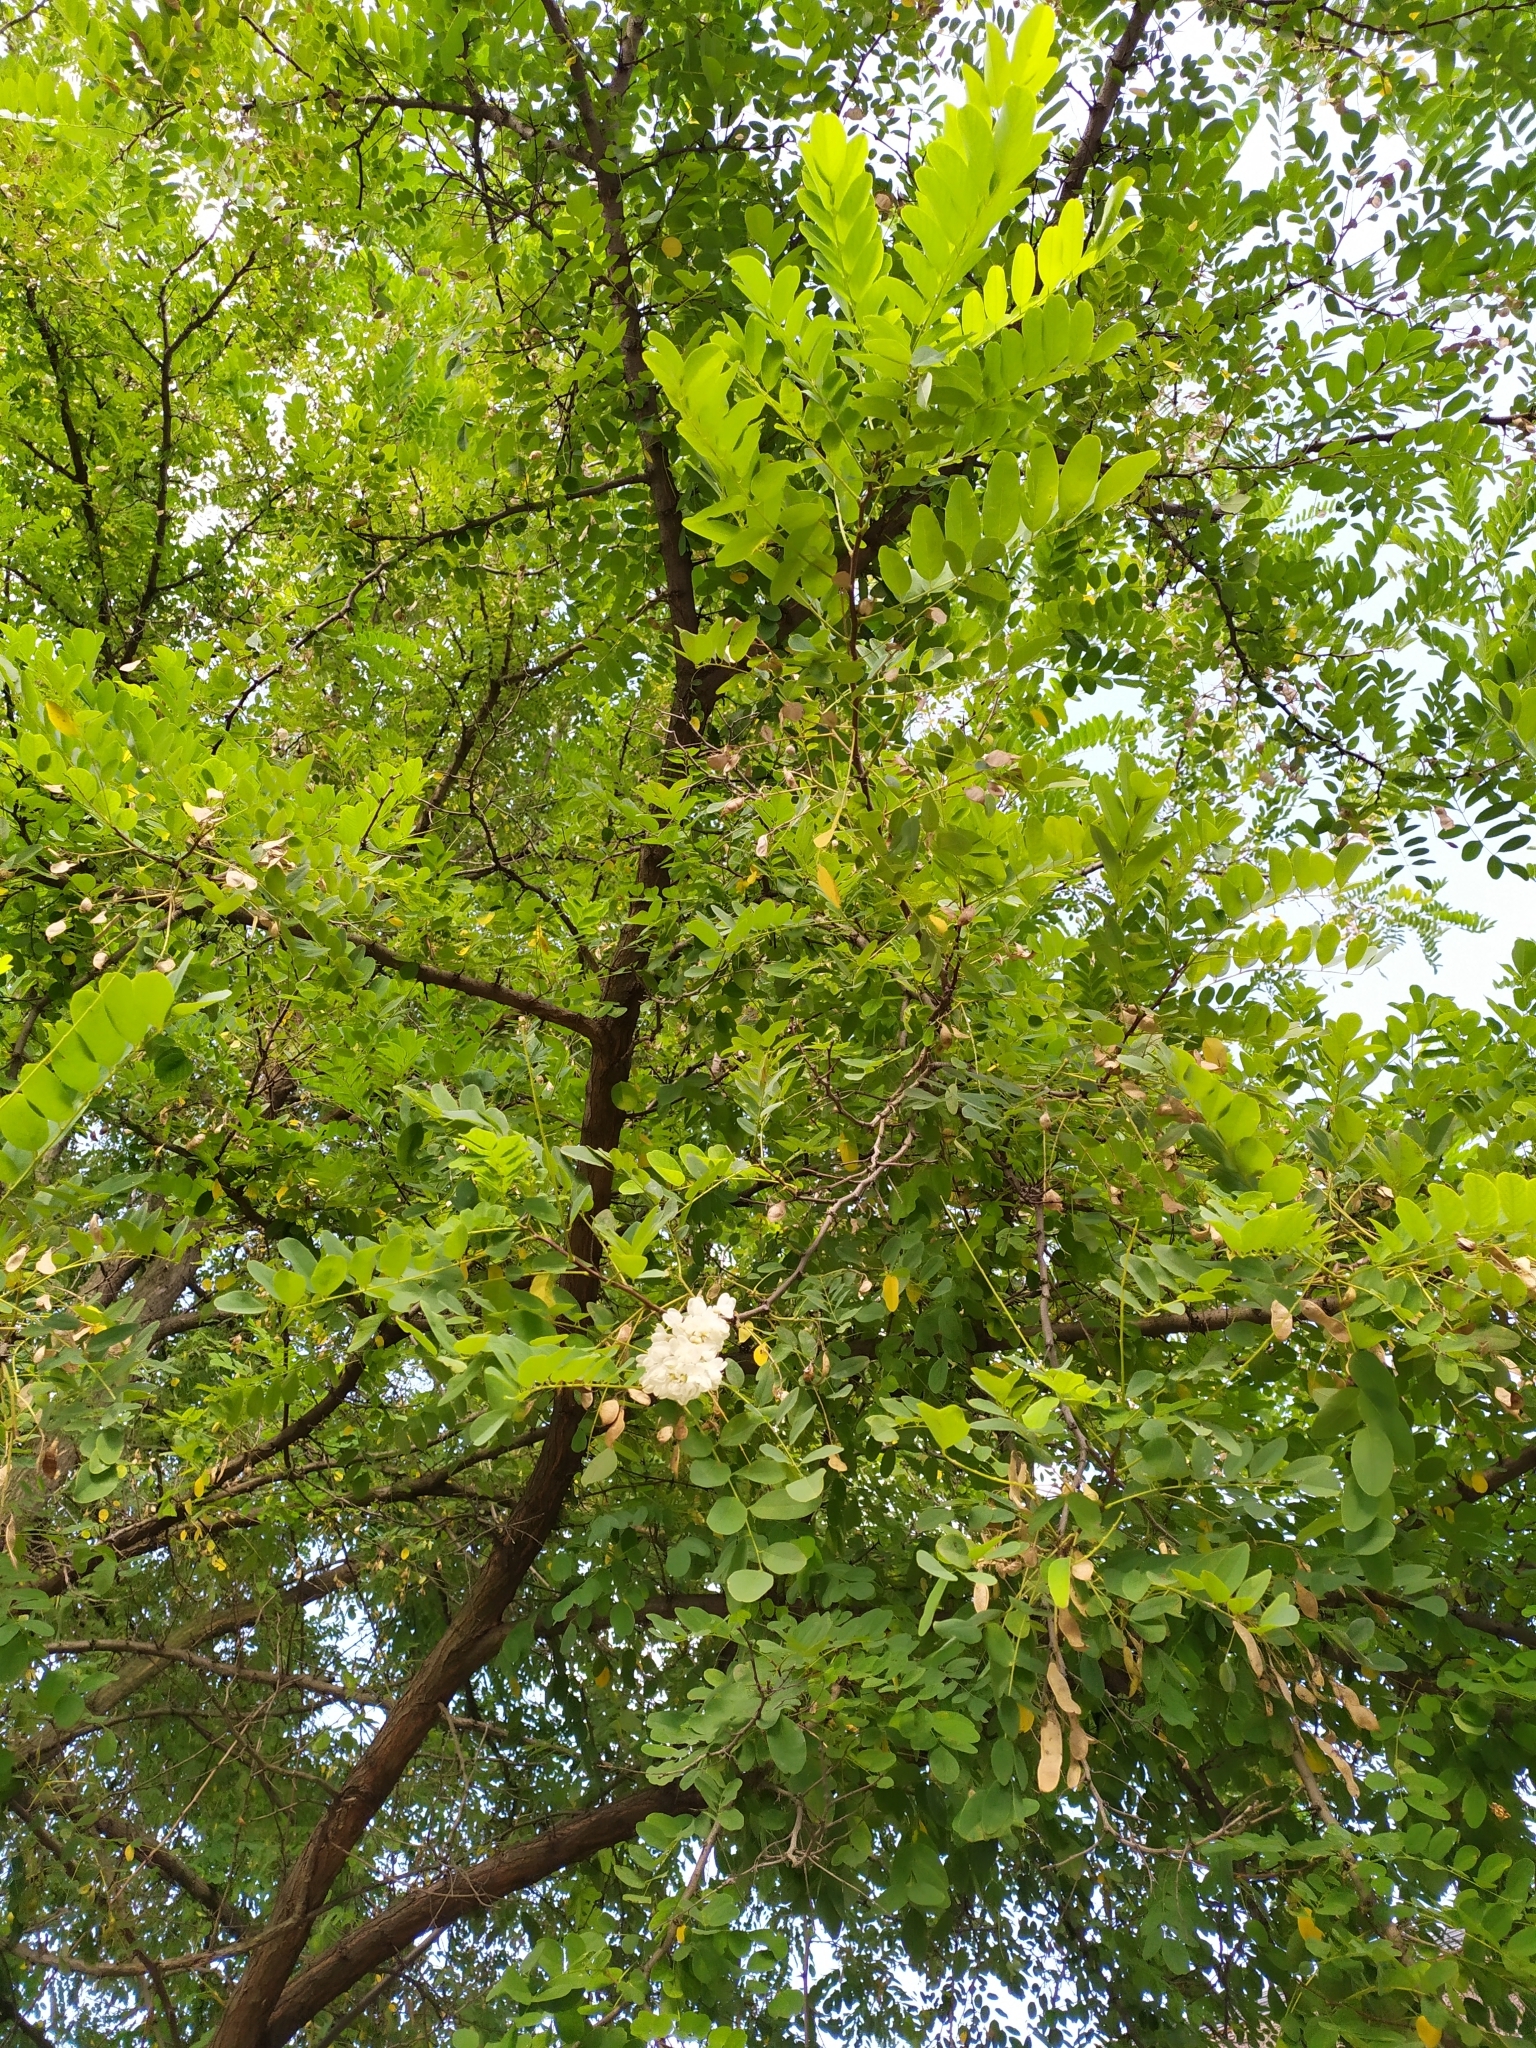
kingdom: Plantae
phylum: Tracheophyta
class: Magnoliopsida
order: Fabales
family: Fabaceae
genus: Robinia
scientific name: Robinia pseudoacacia
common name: Black locust
